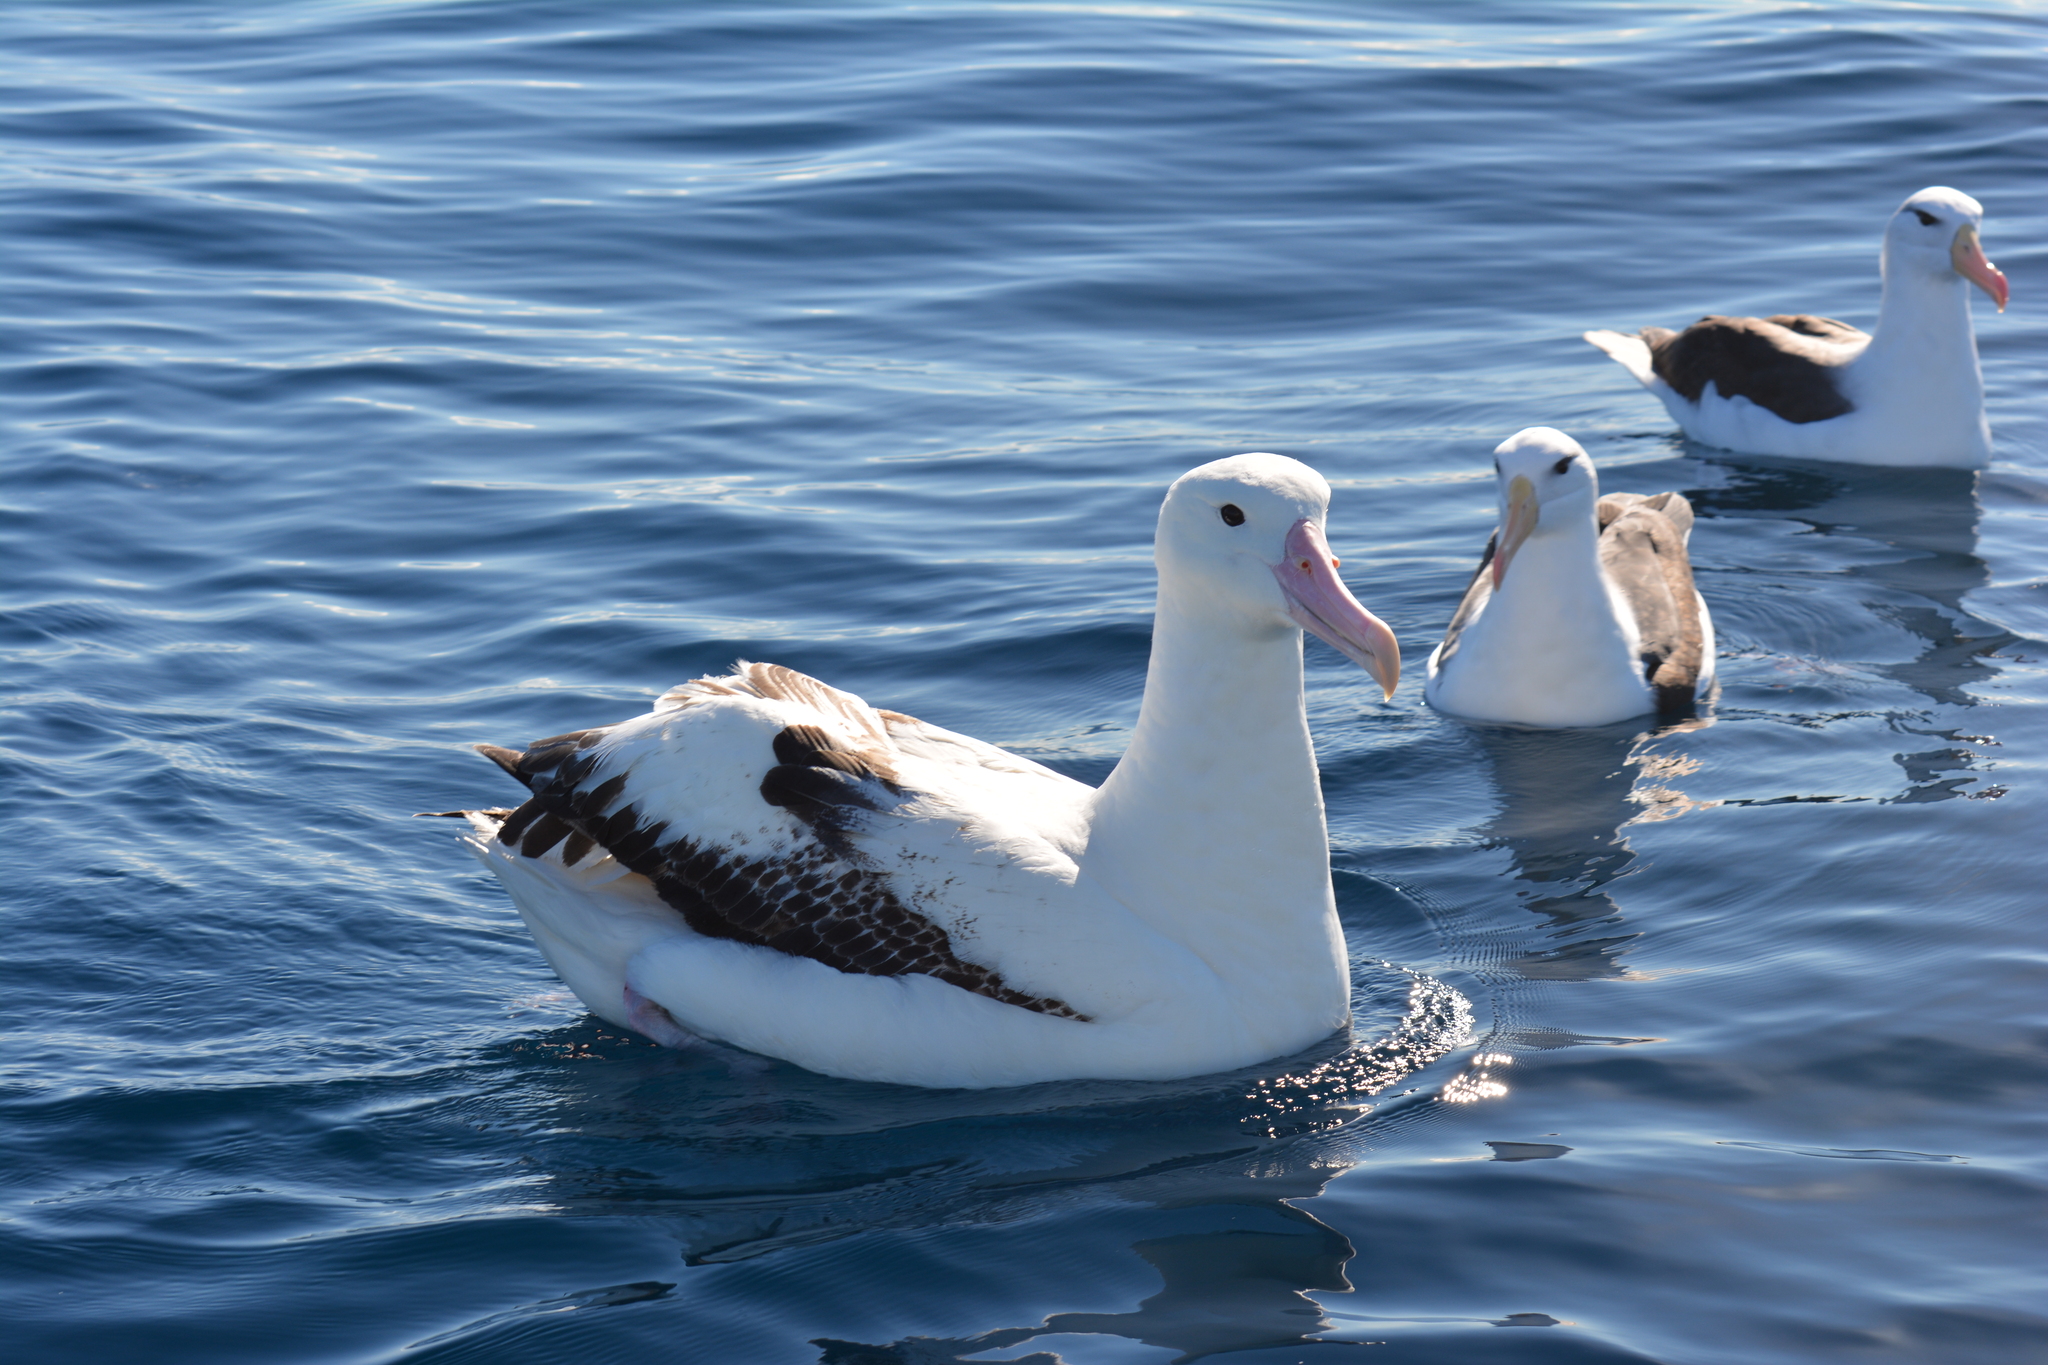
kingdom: Animalia
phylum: Chordata
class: Aves
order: Procellariiformes
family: Diomedeidae
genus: Diomedea
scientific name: Diomedea epomophora
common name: Southern royal albatross
